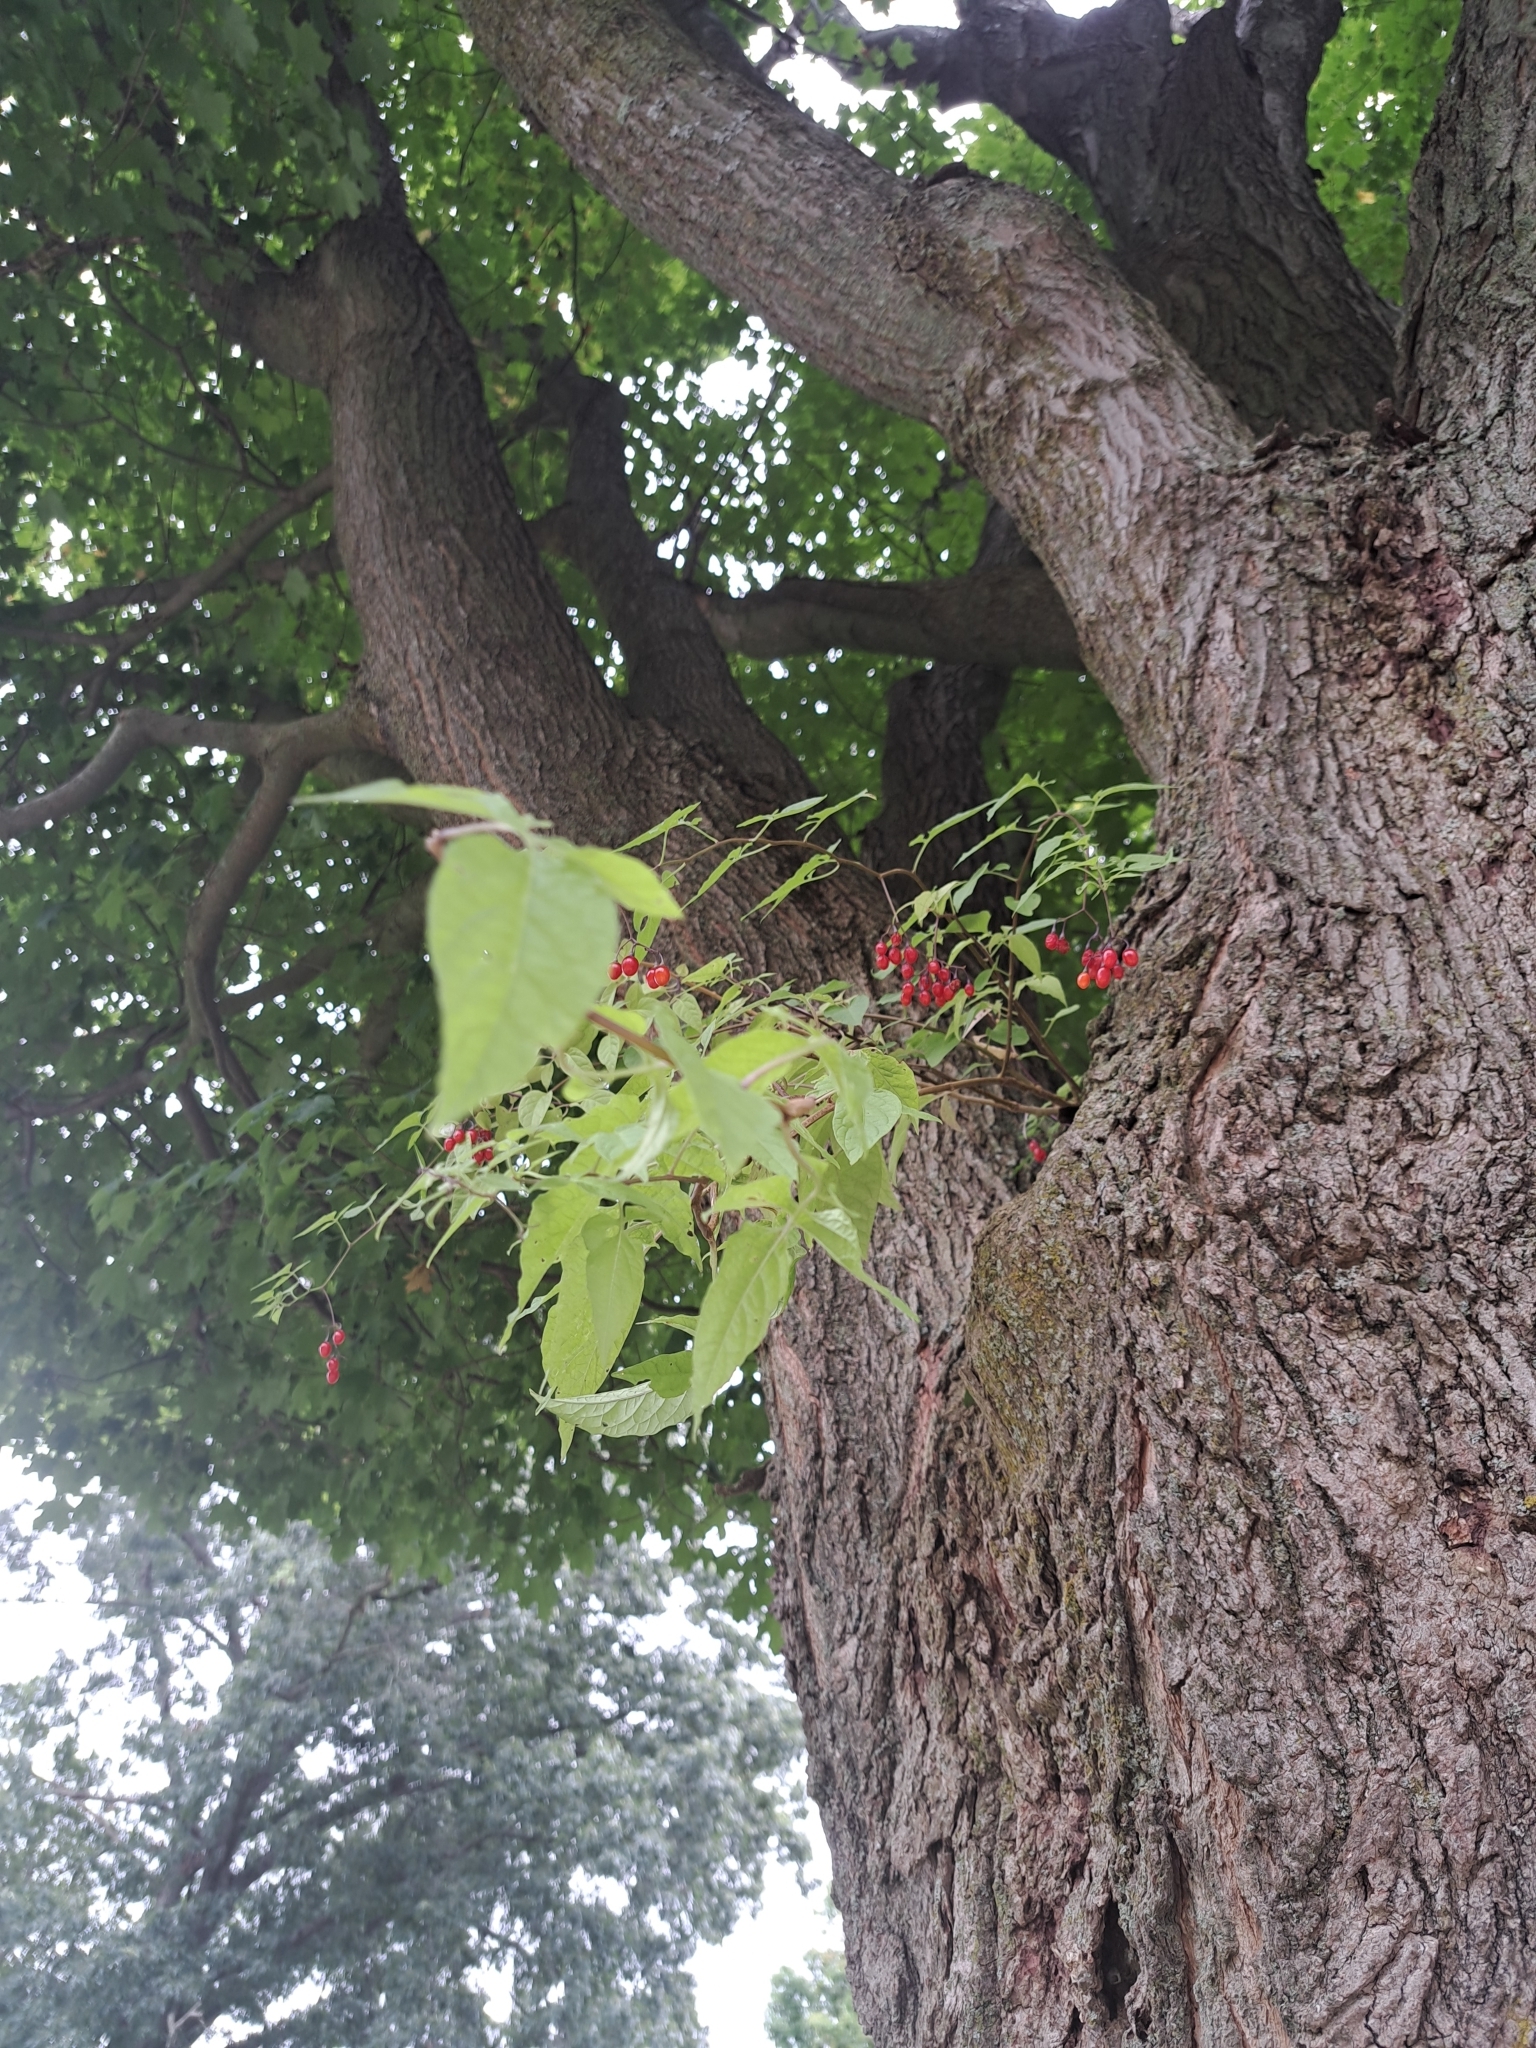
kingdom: Plantae
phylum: Tracheophyta
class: Magnoliopsida
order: Solanales
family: Solanaceae
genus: Solanum
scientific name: Solanum dulcamara
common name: Climbing nightshade
